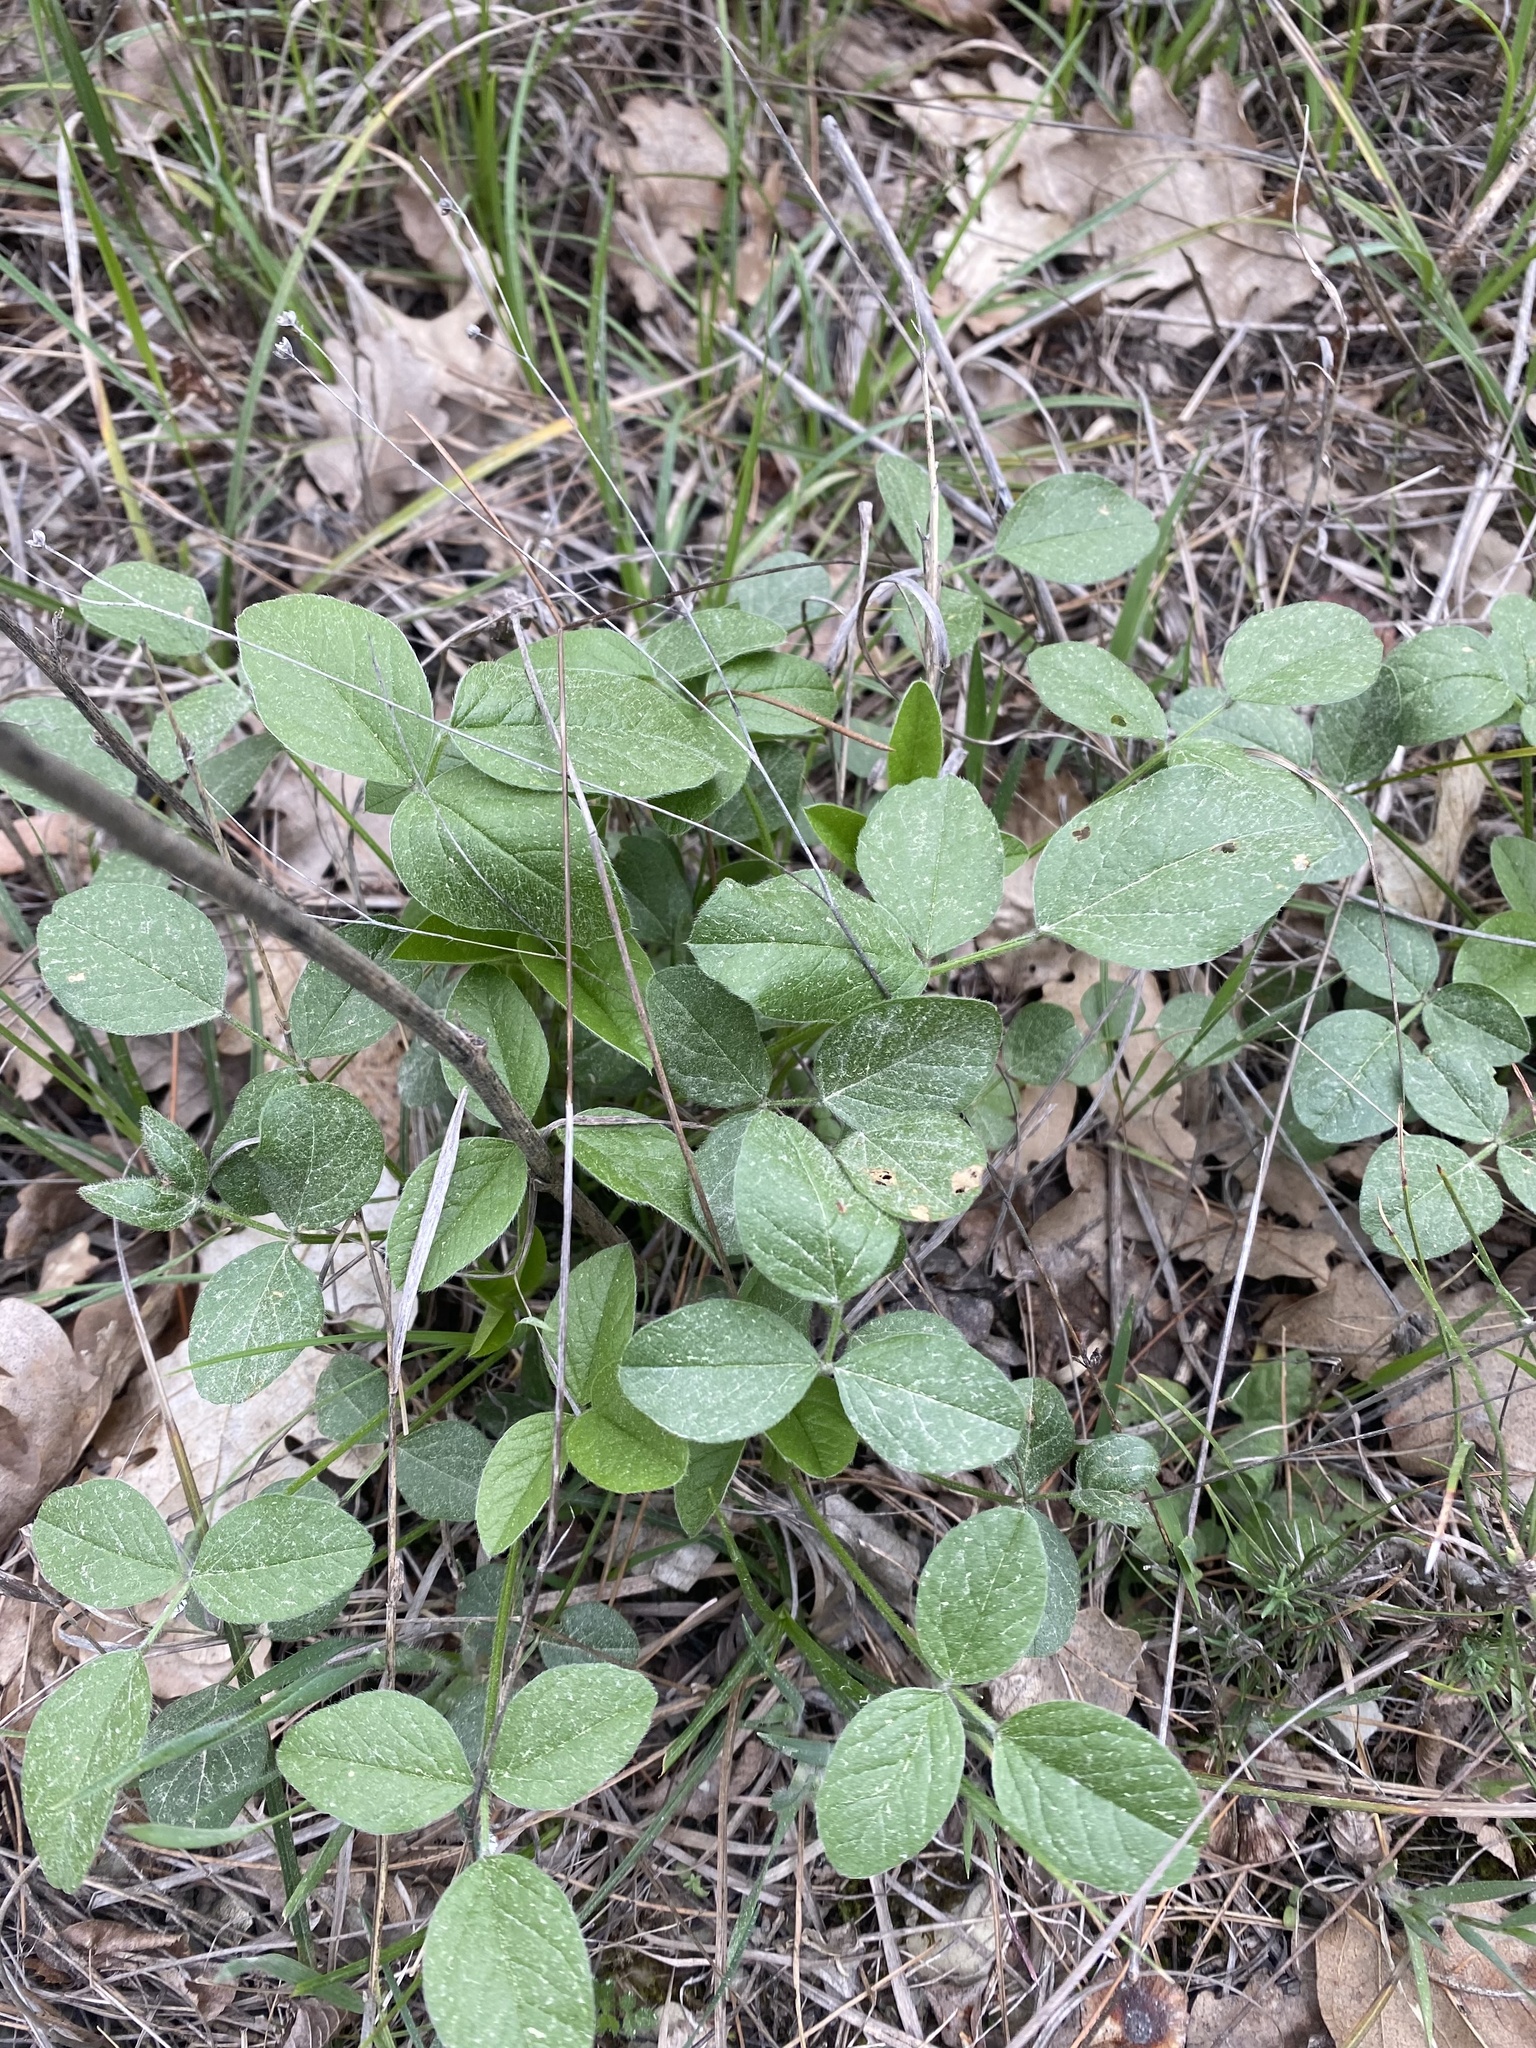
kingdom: Plantae
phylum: Tracheophyta
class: Magnoliopsida
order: Fabales
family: Fabaceae
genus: Bituminaria
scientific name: Bituminaria bituminosa
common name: Arabian pea
